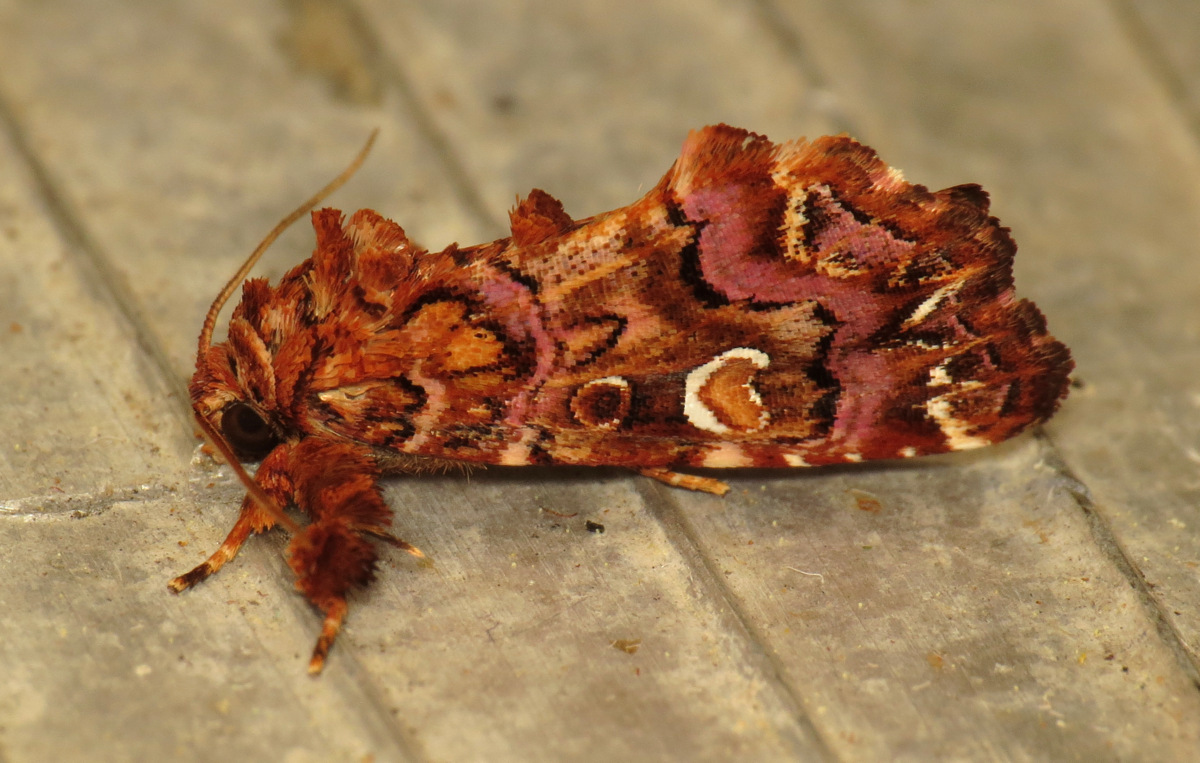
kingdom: Animalia
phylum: Arthropoda
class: Insecta
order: Lepidoptera
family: Noctuidae
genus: Callopistria
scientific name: Callopistria mollissima
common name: Pink-shaded fern moth
